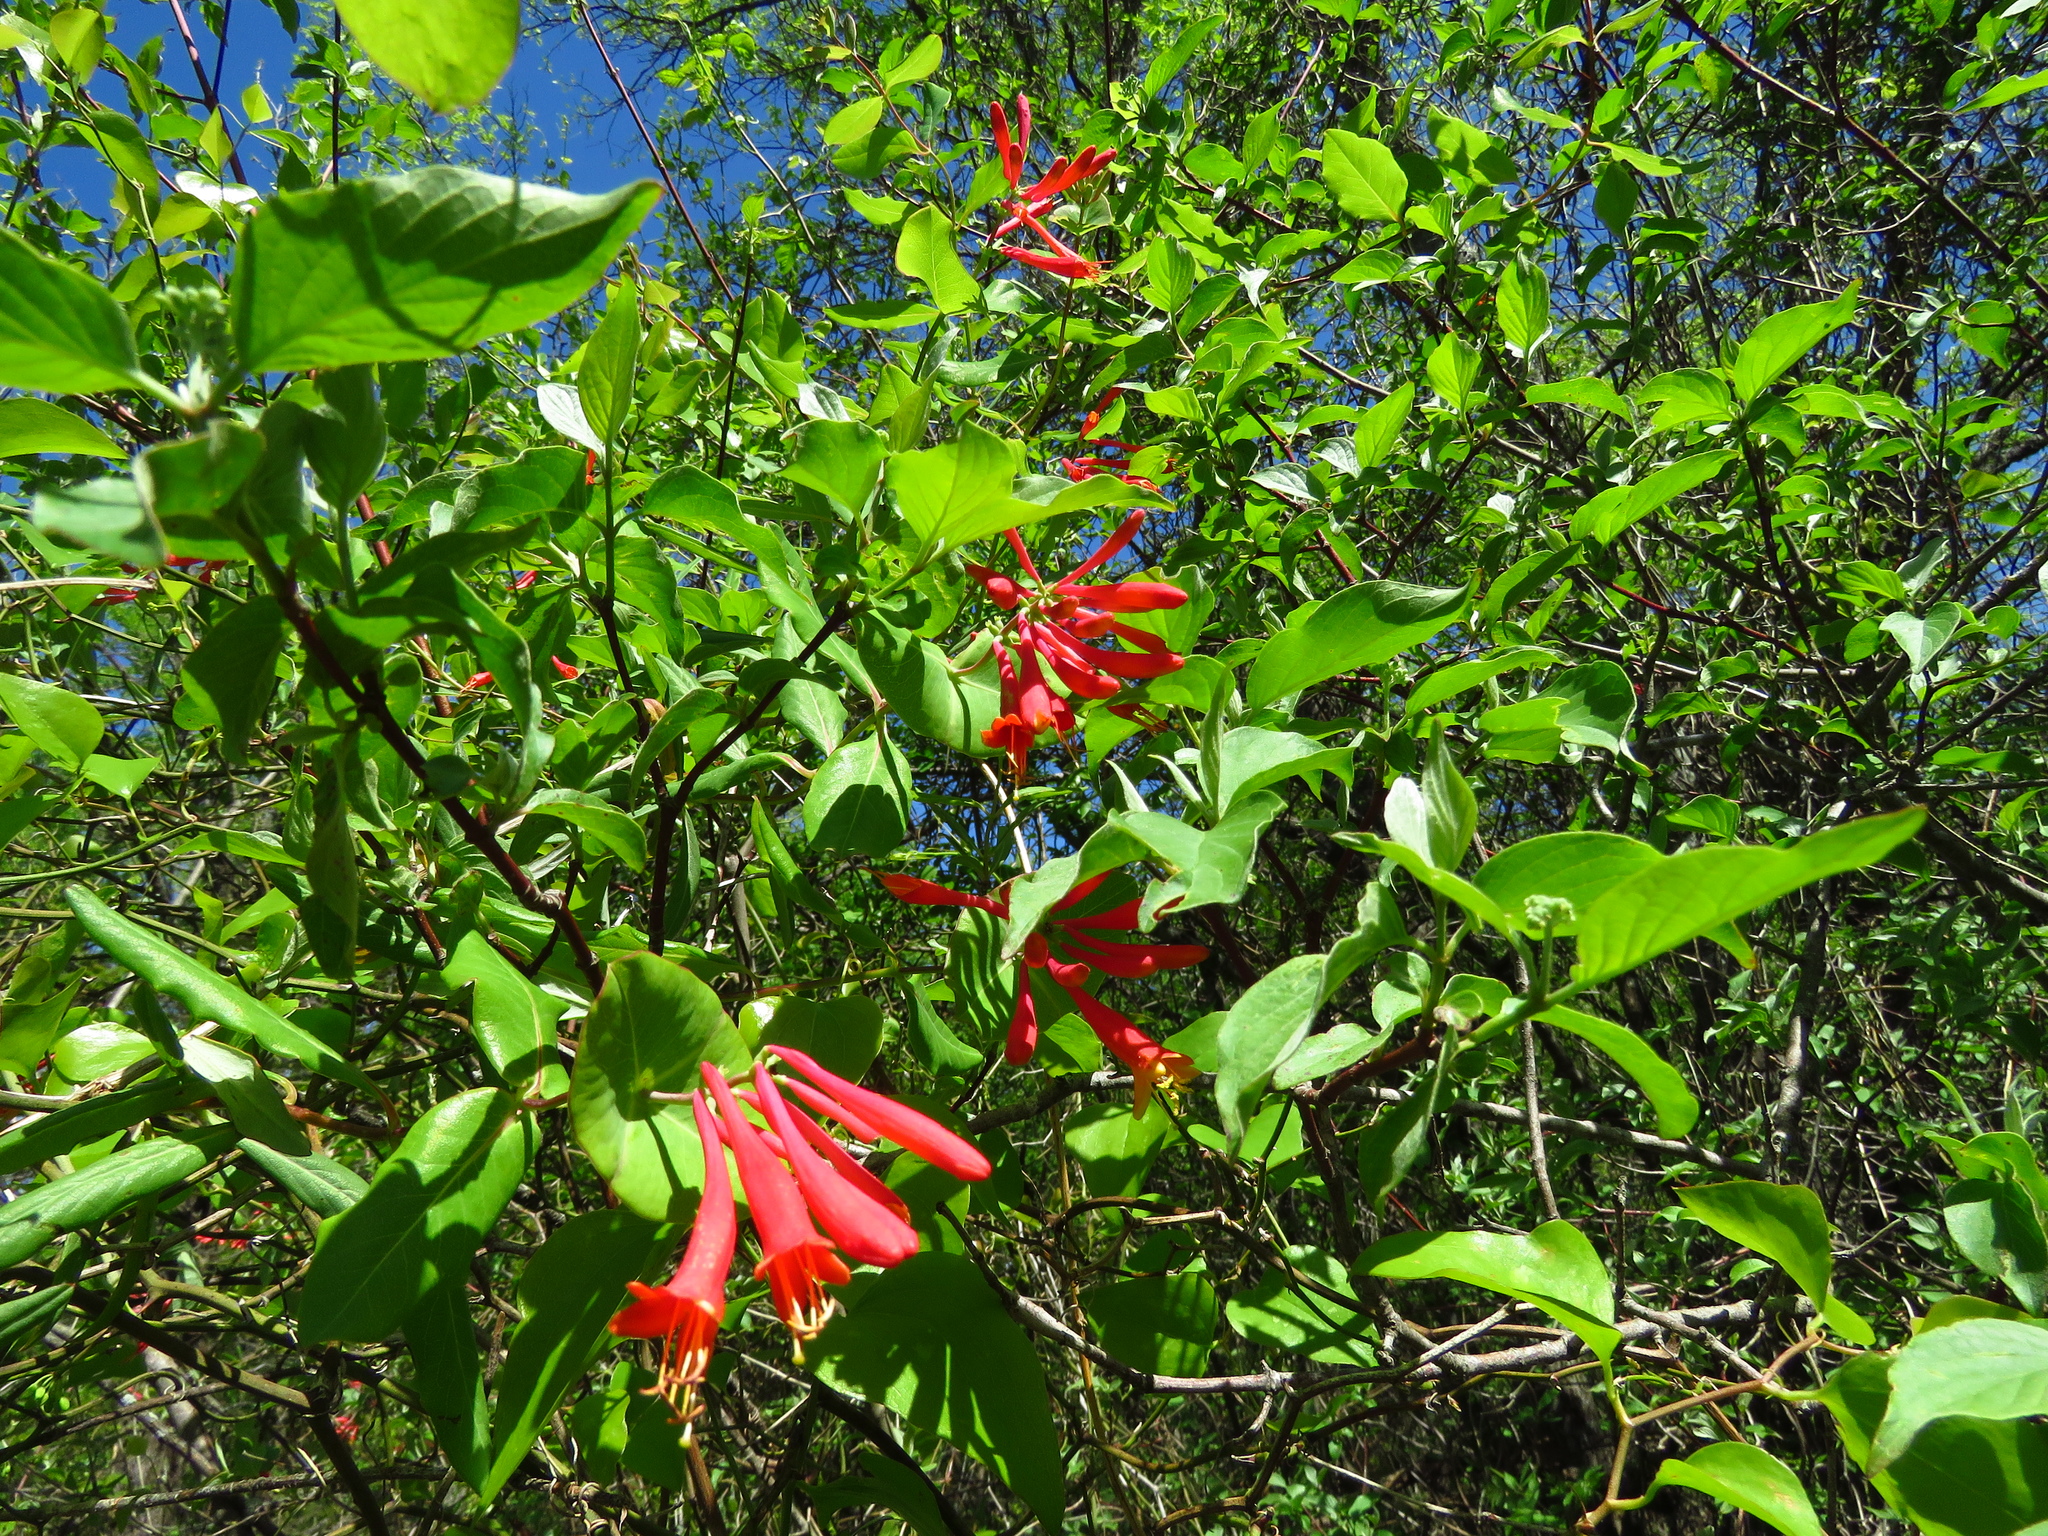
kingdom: Plantae
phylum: Tracheophyta
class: Magnoliopsida
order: Dipsacales
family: Caprifoliaceae
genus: Lonicera
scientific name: Lonicera sempervirens
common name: Coral honeysuckle
